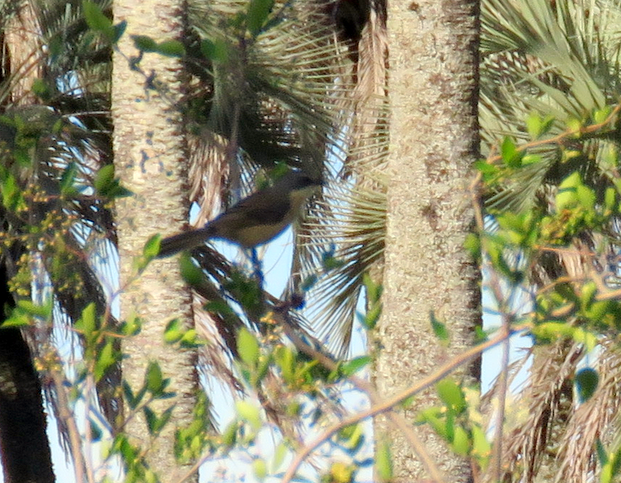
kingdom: Animalia
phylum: Chordata
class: Aves
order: Passeriformes
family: Parulidae
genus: Geothlypis
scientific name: Geothlypis velata
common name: Southern yellowthroat
